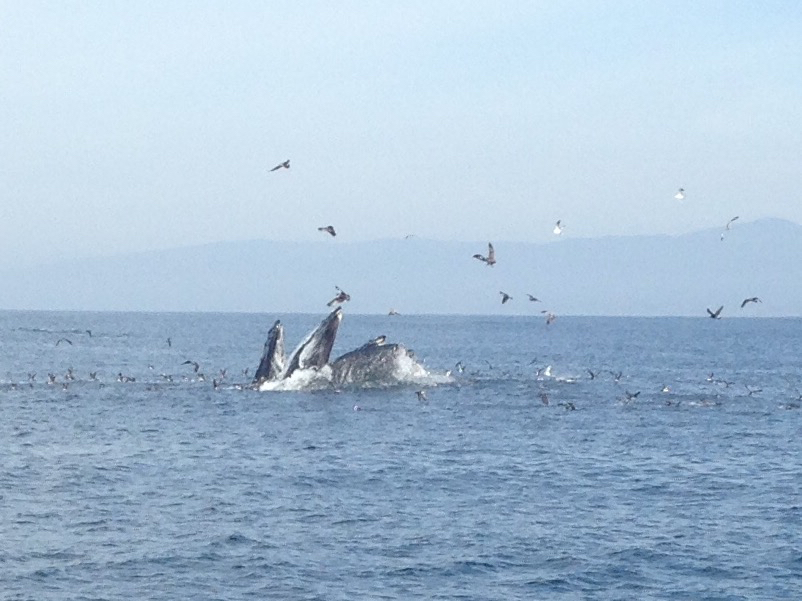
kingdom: Animalia
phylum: Chordata
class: Mammalia
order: Cetacea
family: Balaenopteridae
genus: Megaptera
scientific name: Megaptera novaeangliae
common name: Humpback whale
